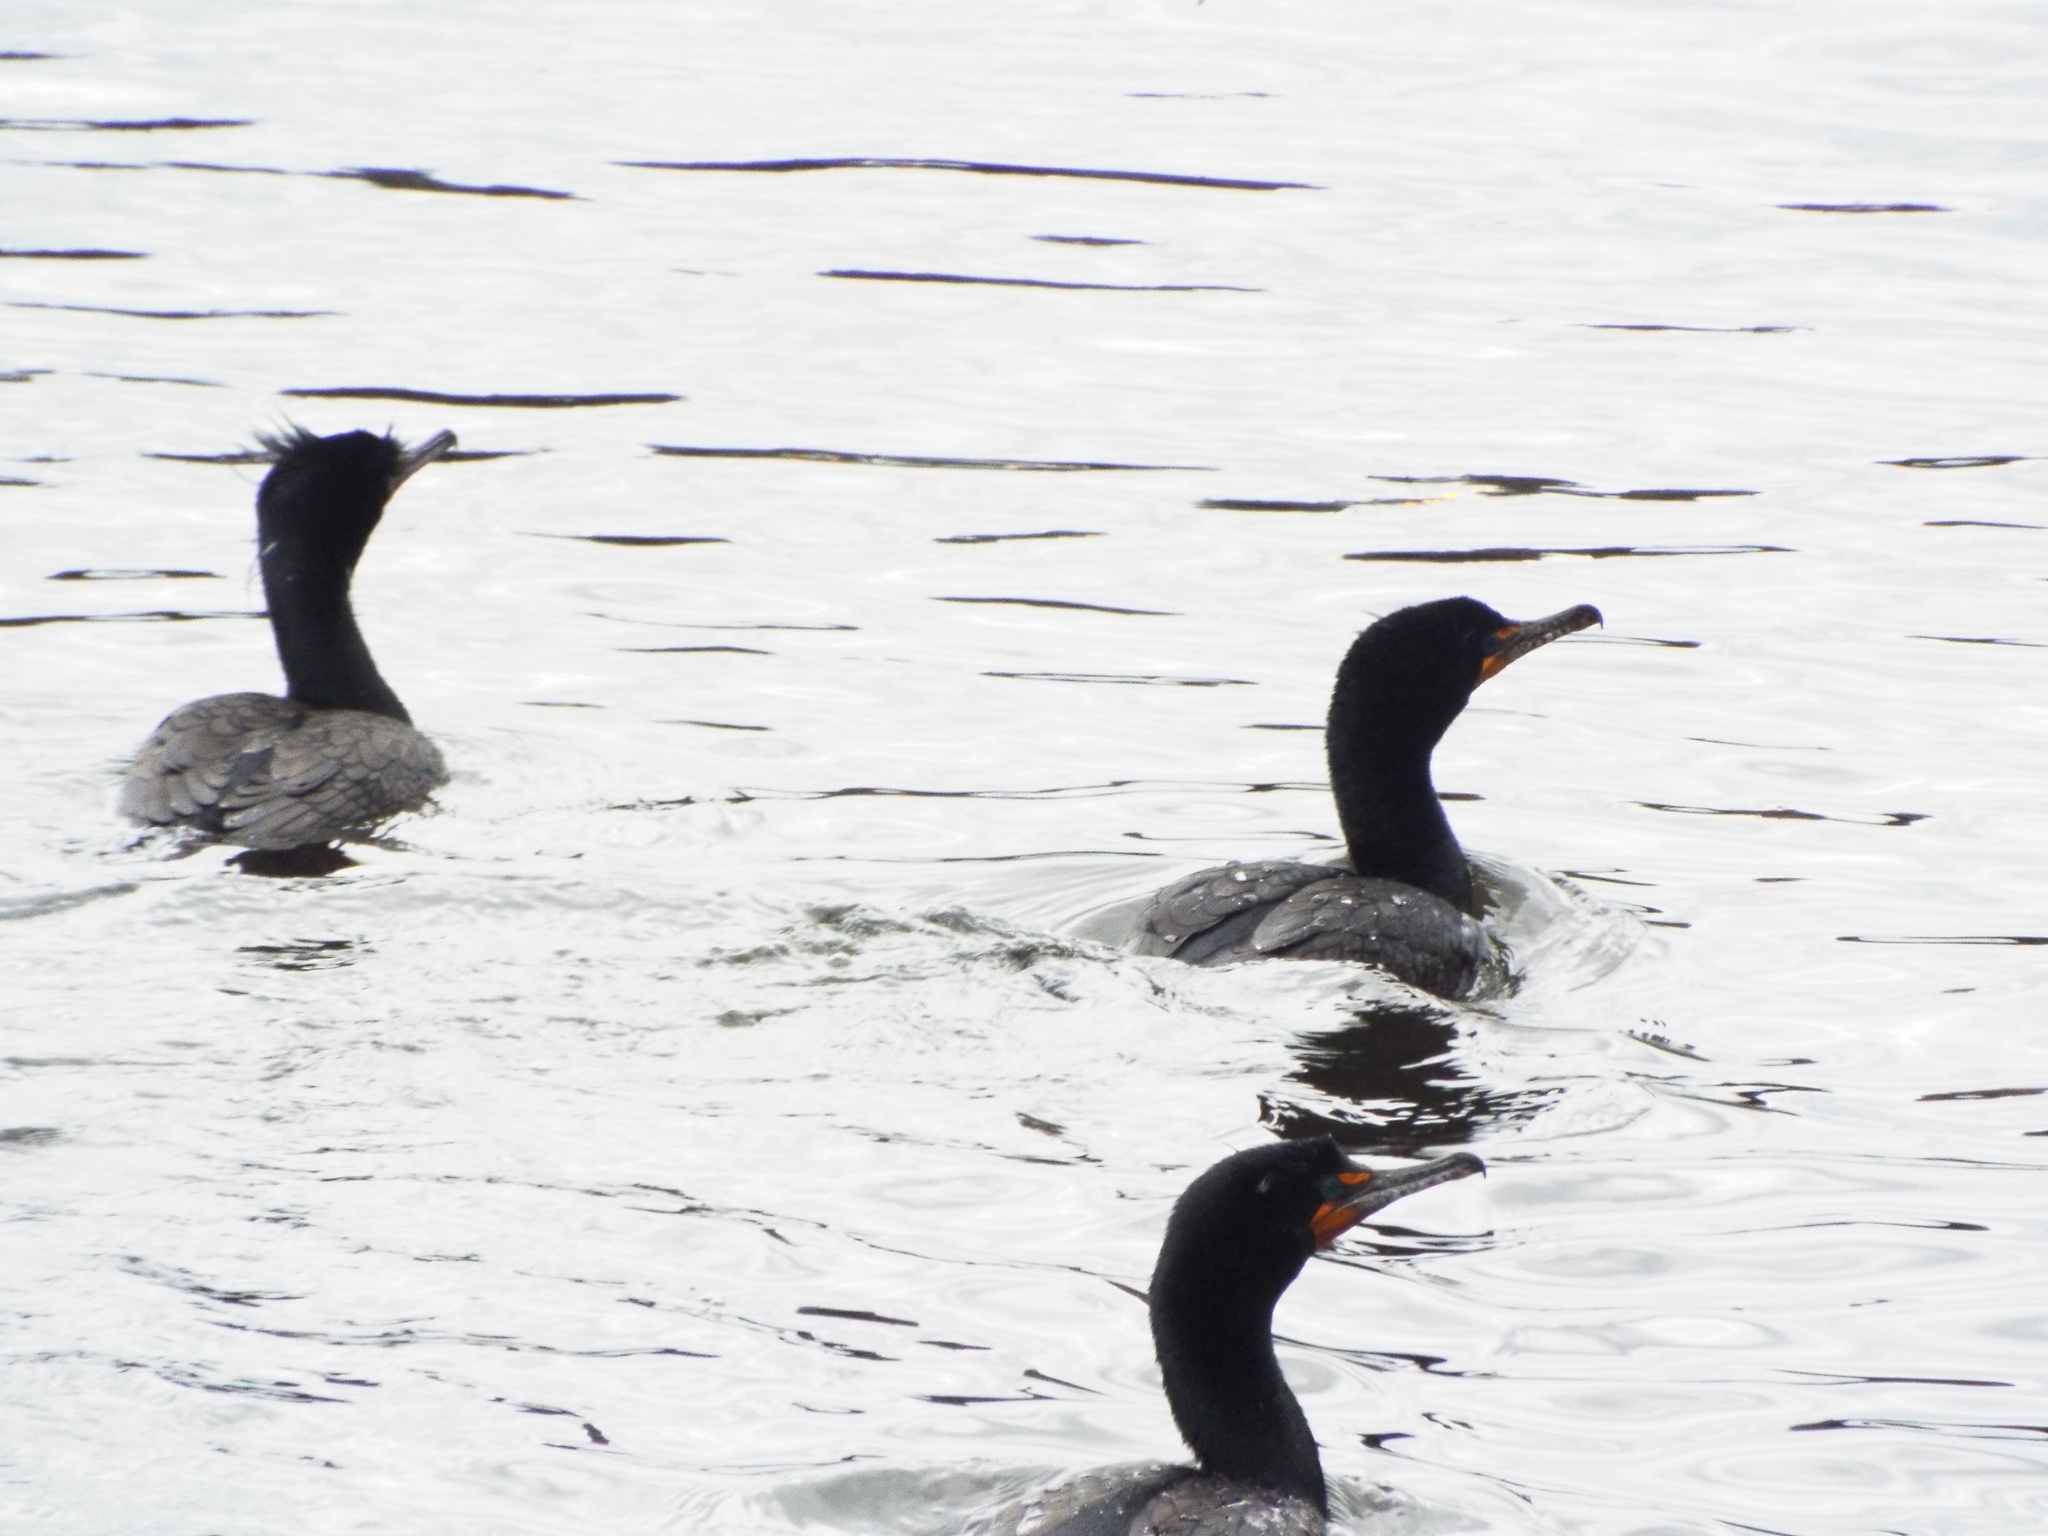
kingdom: Animalia
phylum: Chordata
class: Aves
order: Suliformes
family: Phalacrocoracidae
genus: Phalacrocorax
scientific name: Phalacrocorax auritus
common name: Double-crested cormorant
